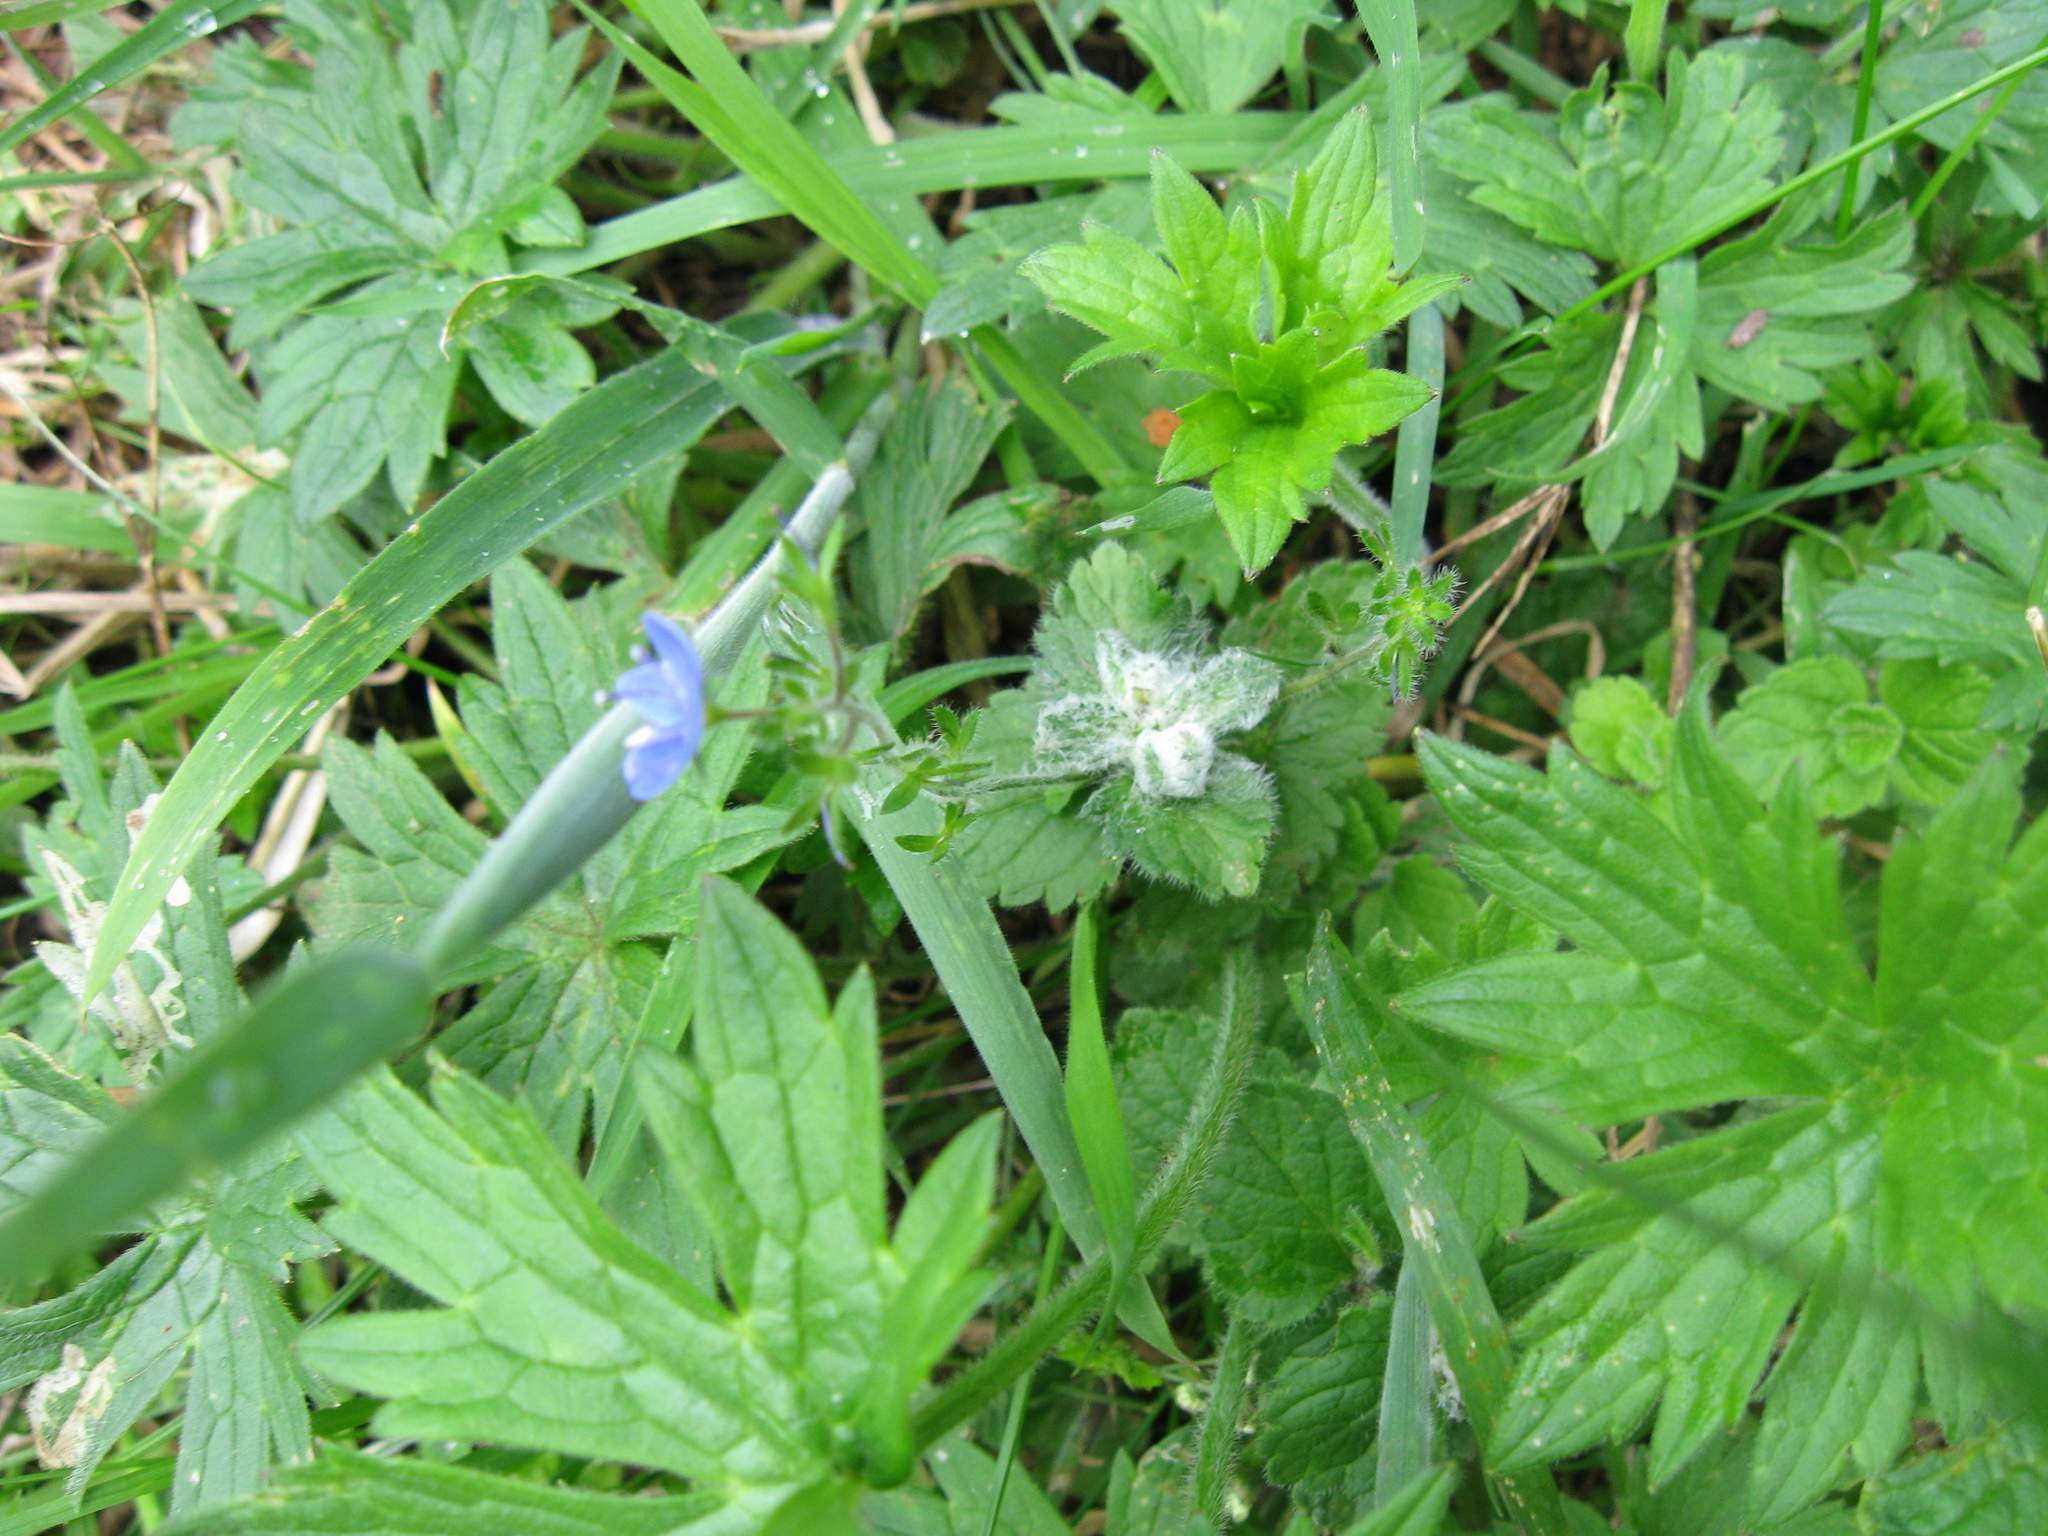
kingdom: Animalia
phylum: Arthropoda
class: Insecta
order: Diptera
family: Cecidomyiidae
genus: Jaapiella
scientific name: Jaapiella veronicae
